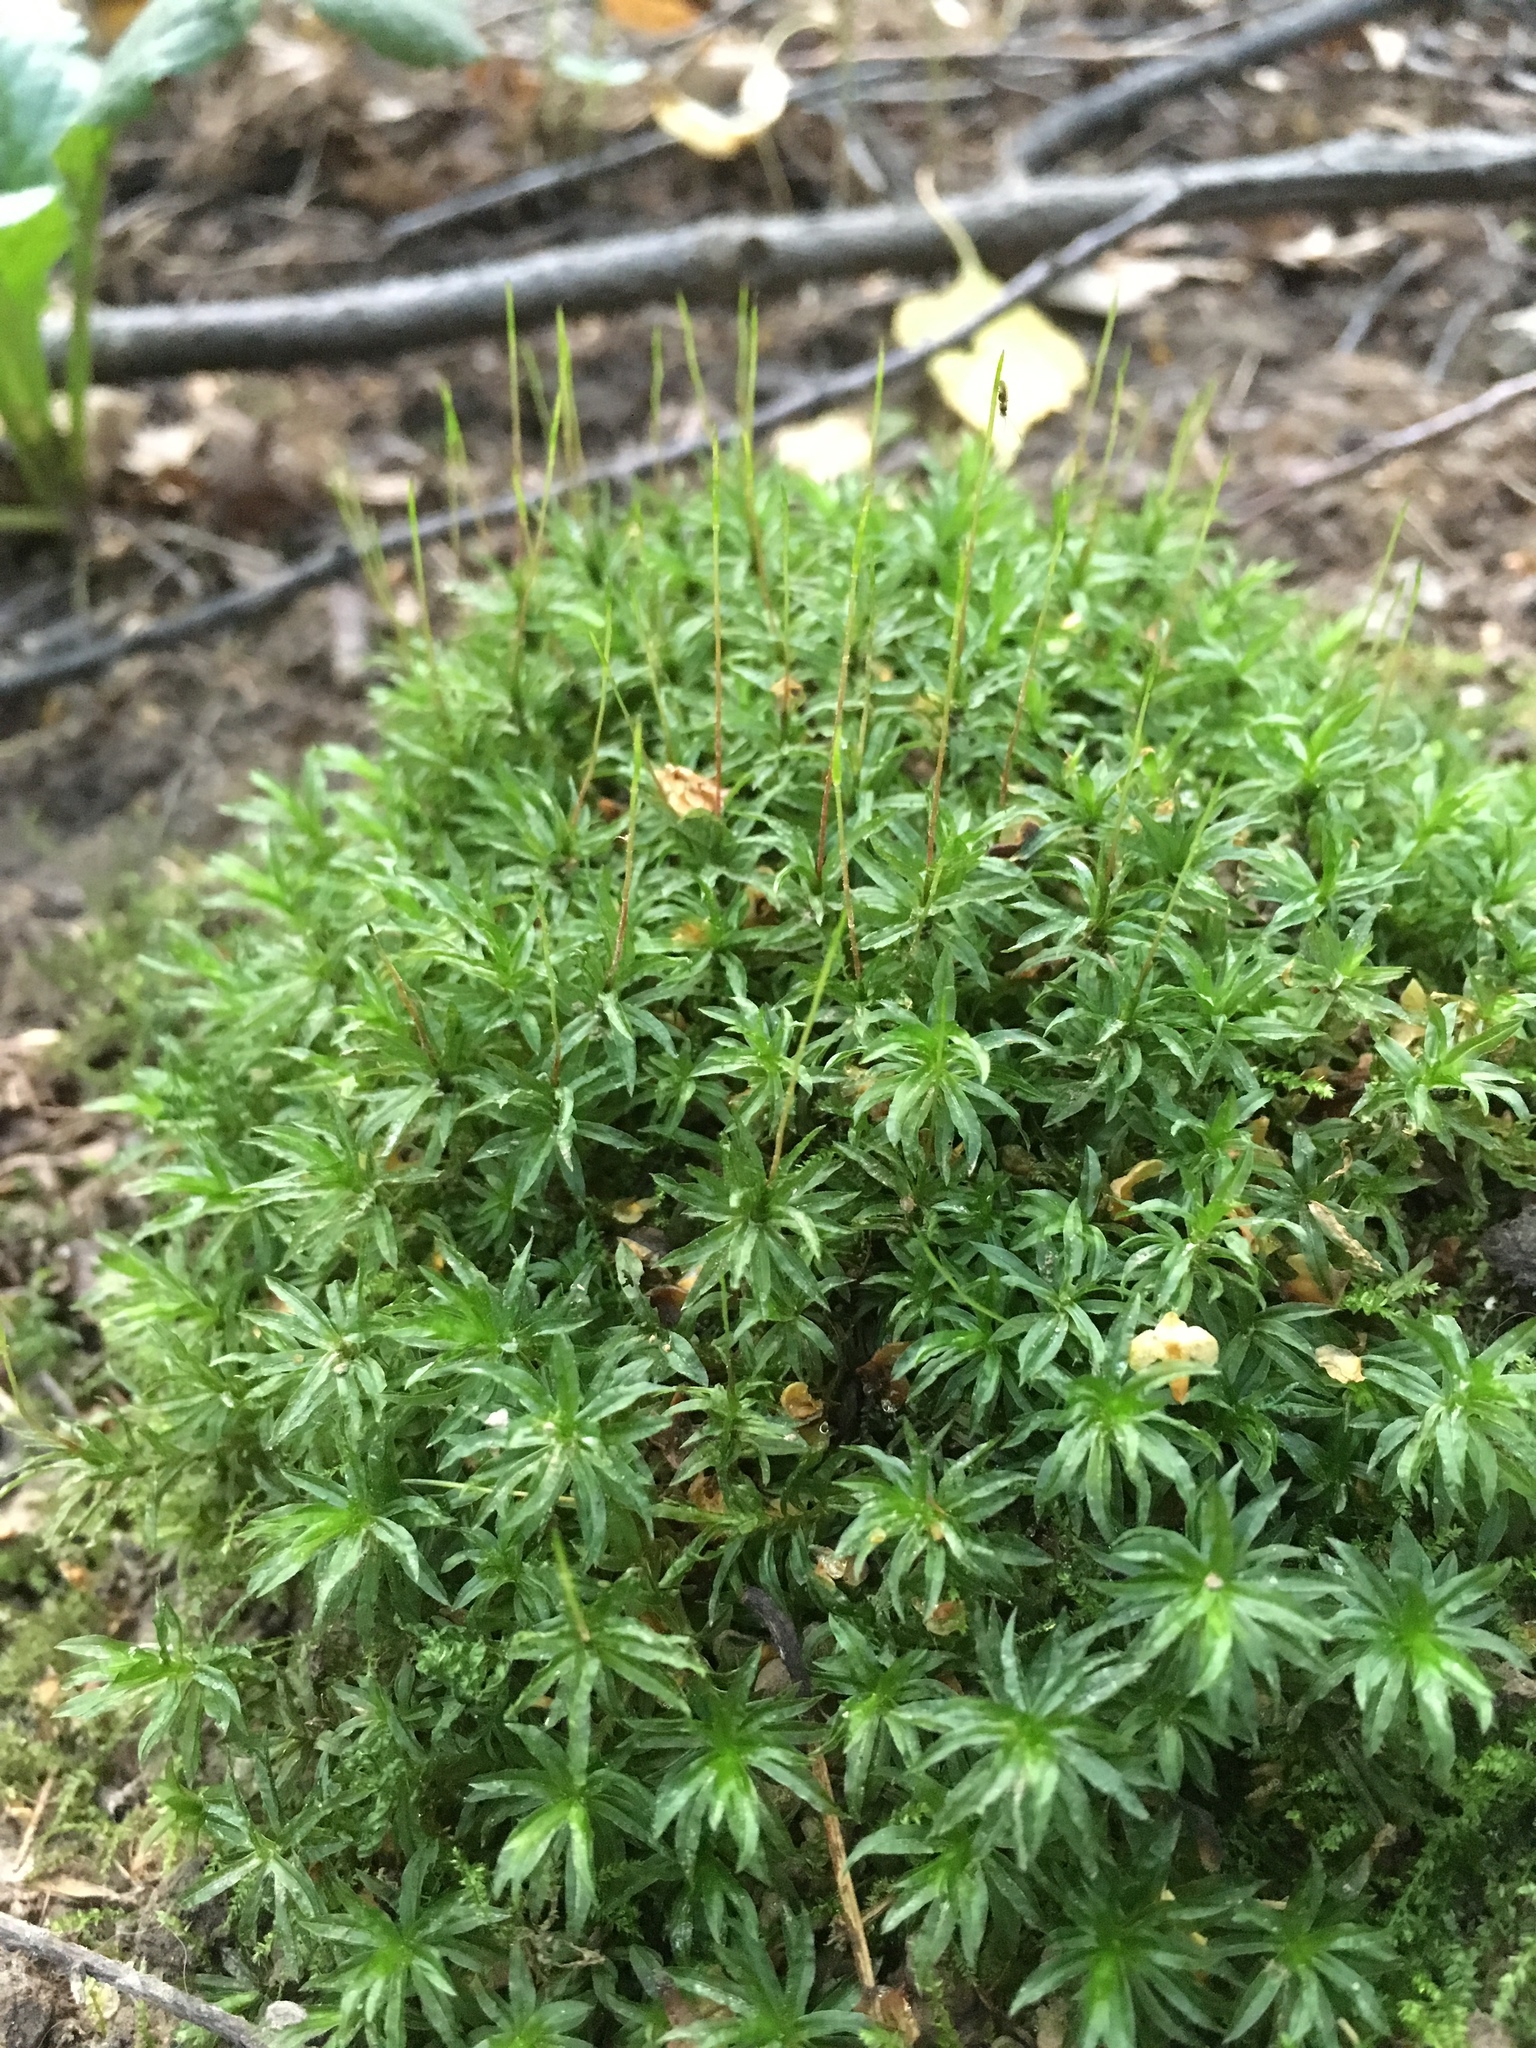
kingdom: Plantae
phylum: Bryophyta
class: Polytrichopsida
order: Polytrichales
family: Polytrichaceae
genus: Atrichum
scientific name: Atrichum undulatum
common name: Common smoothcap
